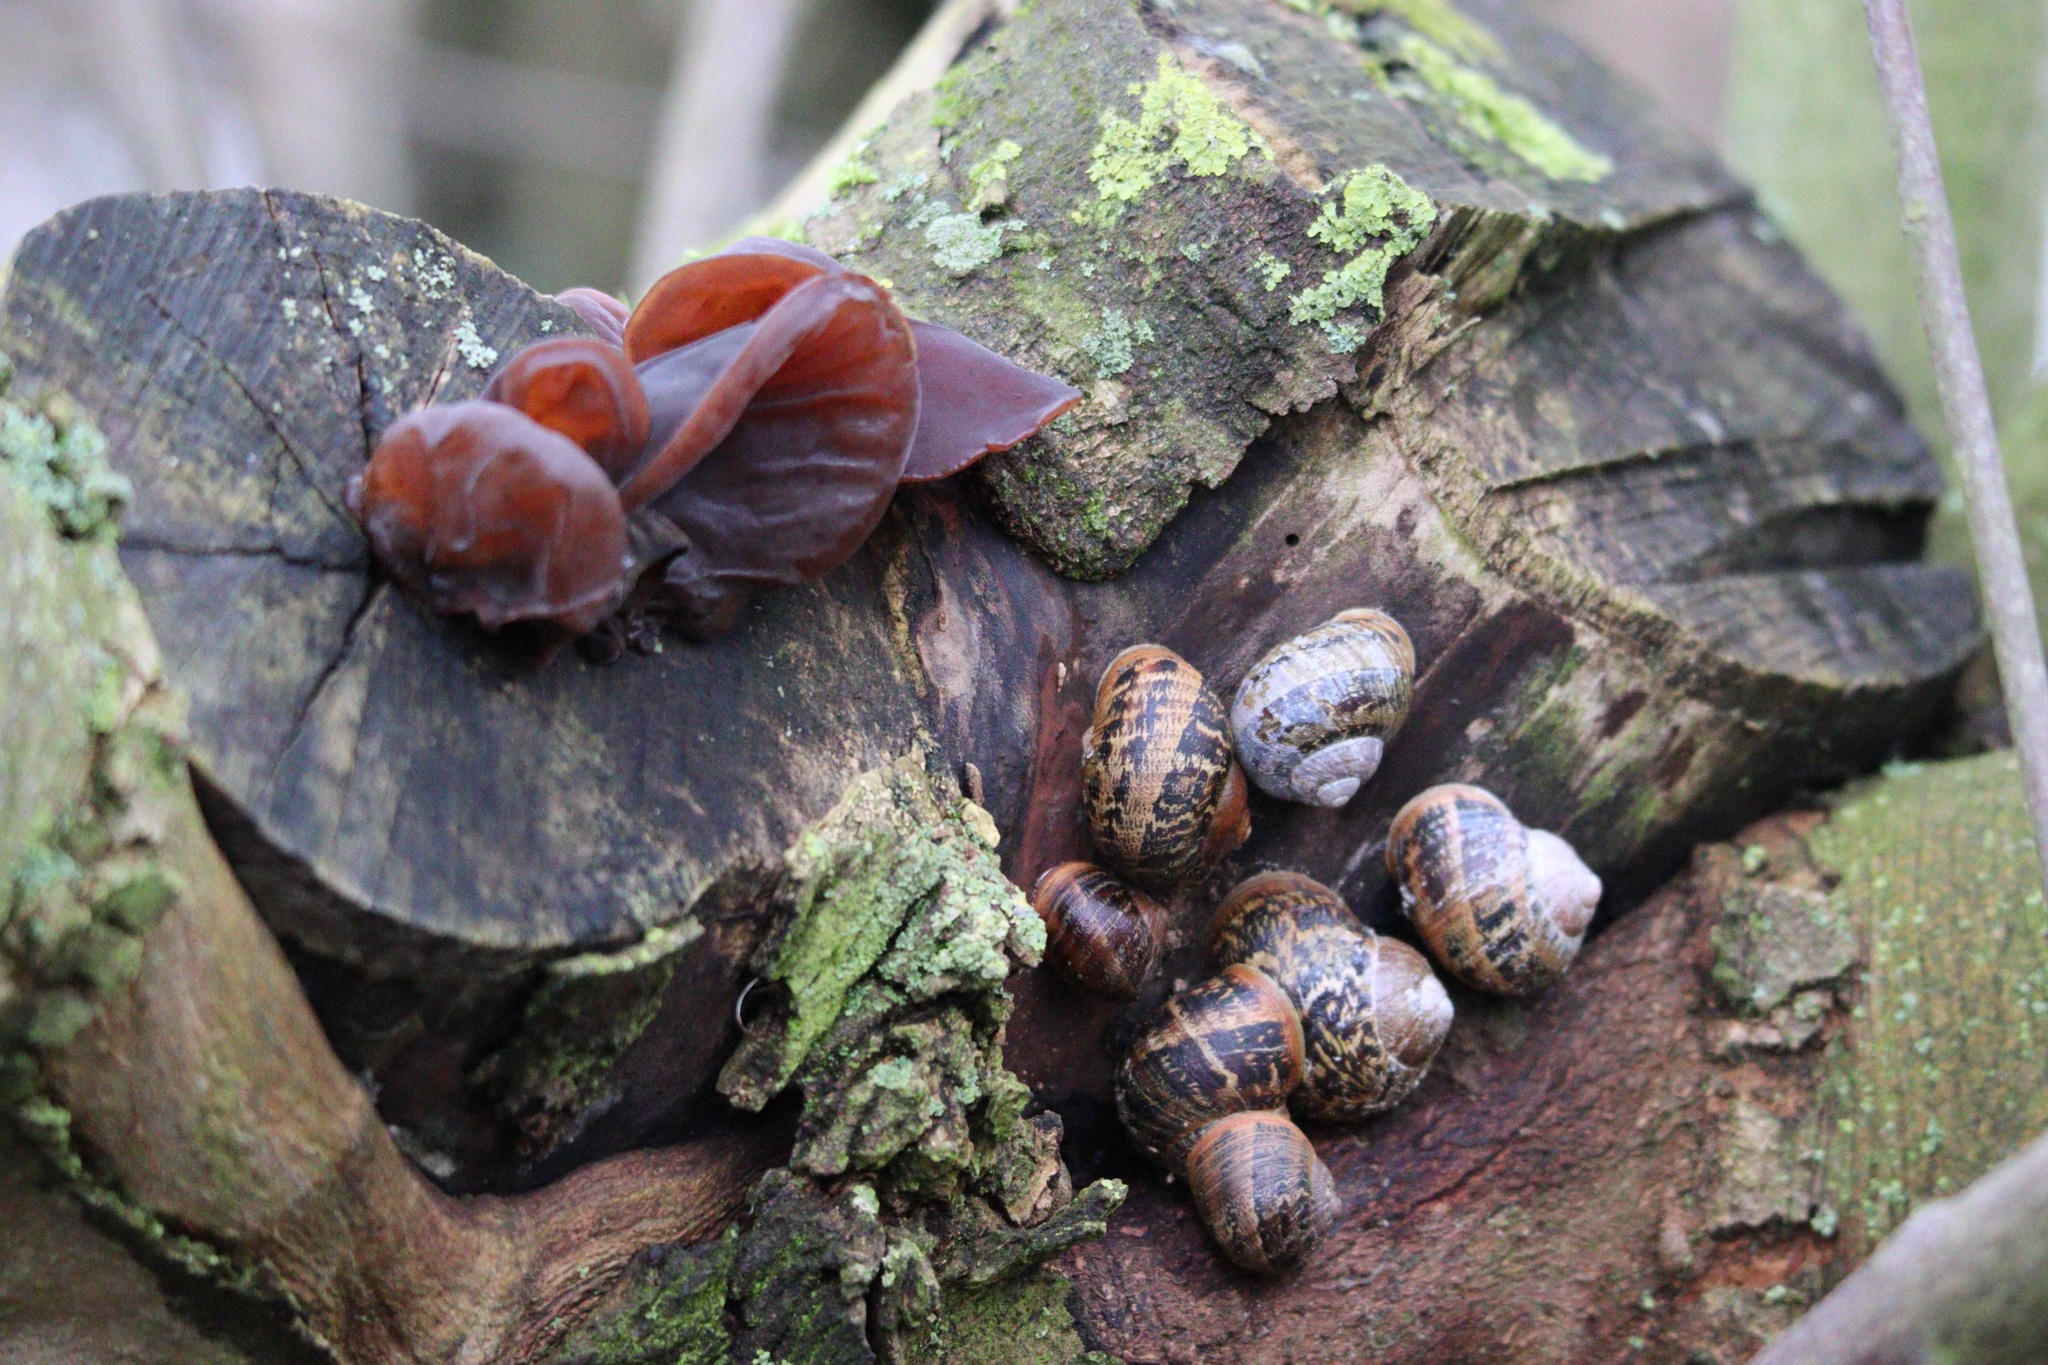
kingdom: Fungi
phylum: Basidiomycota
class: Agaricomycetes
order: Auriculariales
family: Auriculariaceae
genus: Auricularia
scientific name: Auricularia auricula-judae
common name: Jelly ear
